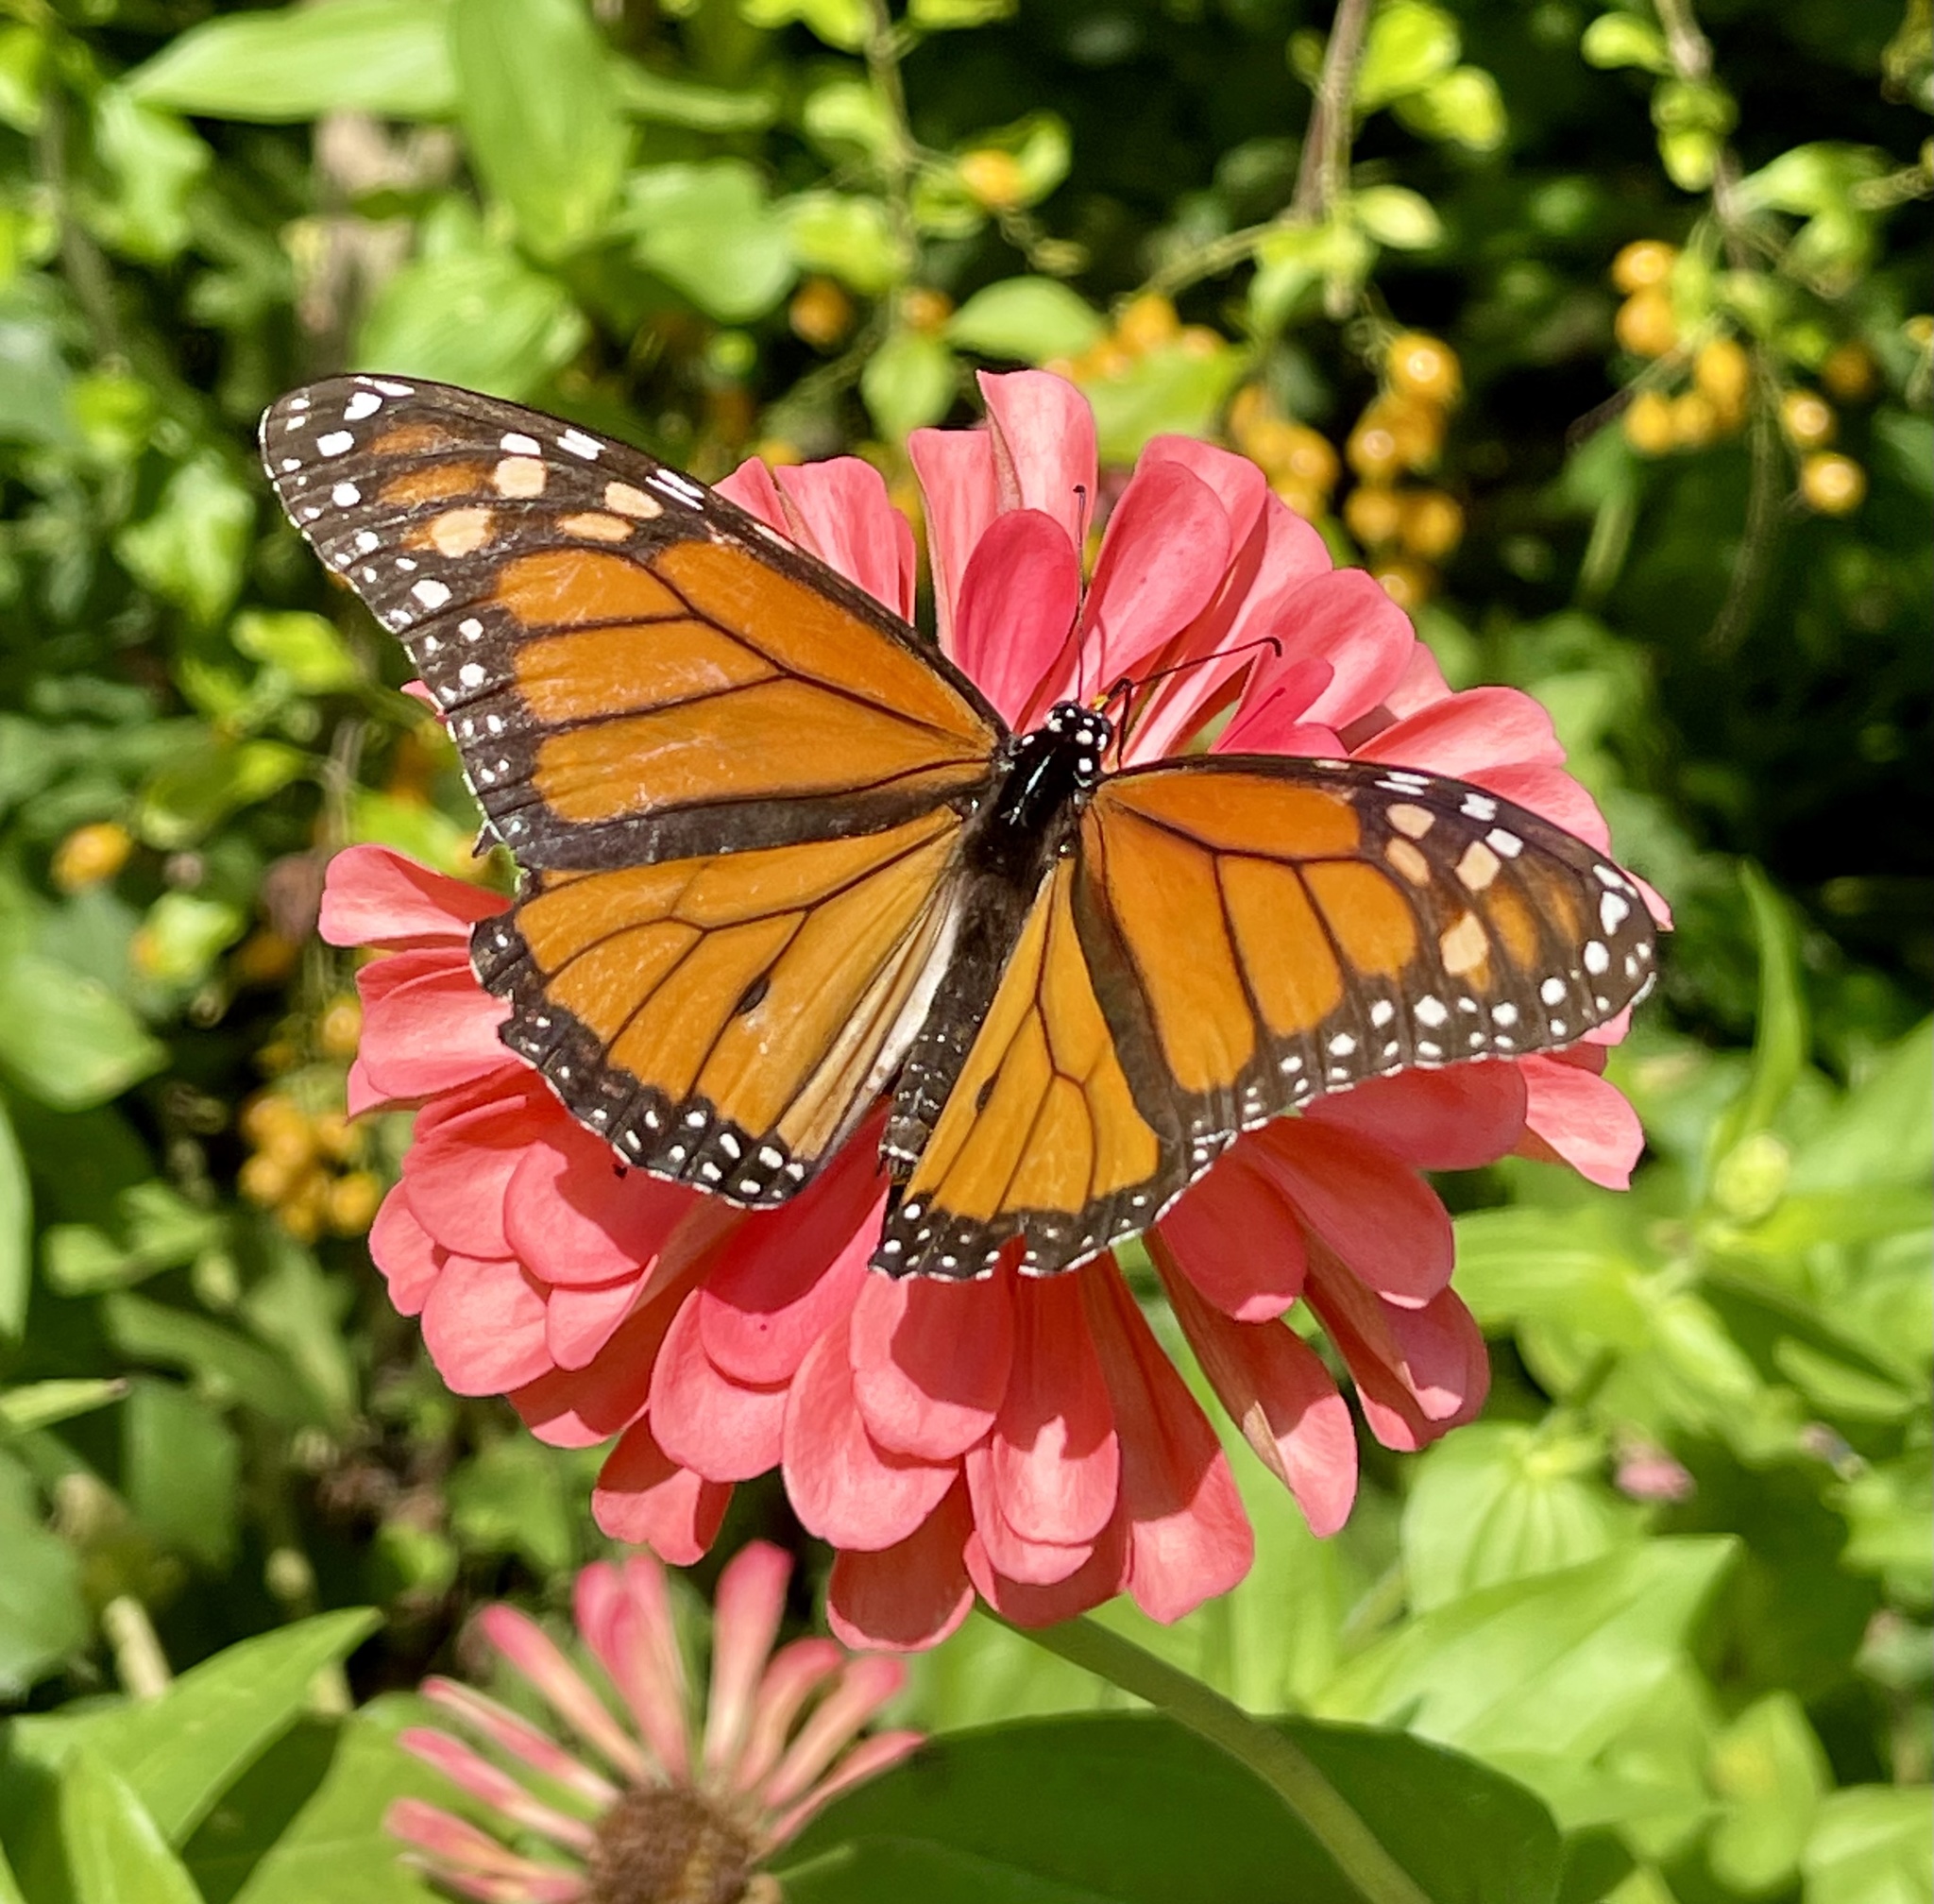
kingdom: Animalia
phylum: Arthropoda
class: Insecta
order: Lepidoptera
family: Nymphalidae
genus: Danaus
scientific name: Danaus plexippus
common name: Monarch
